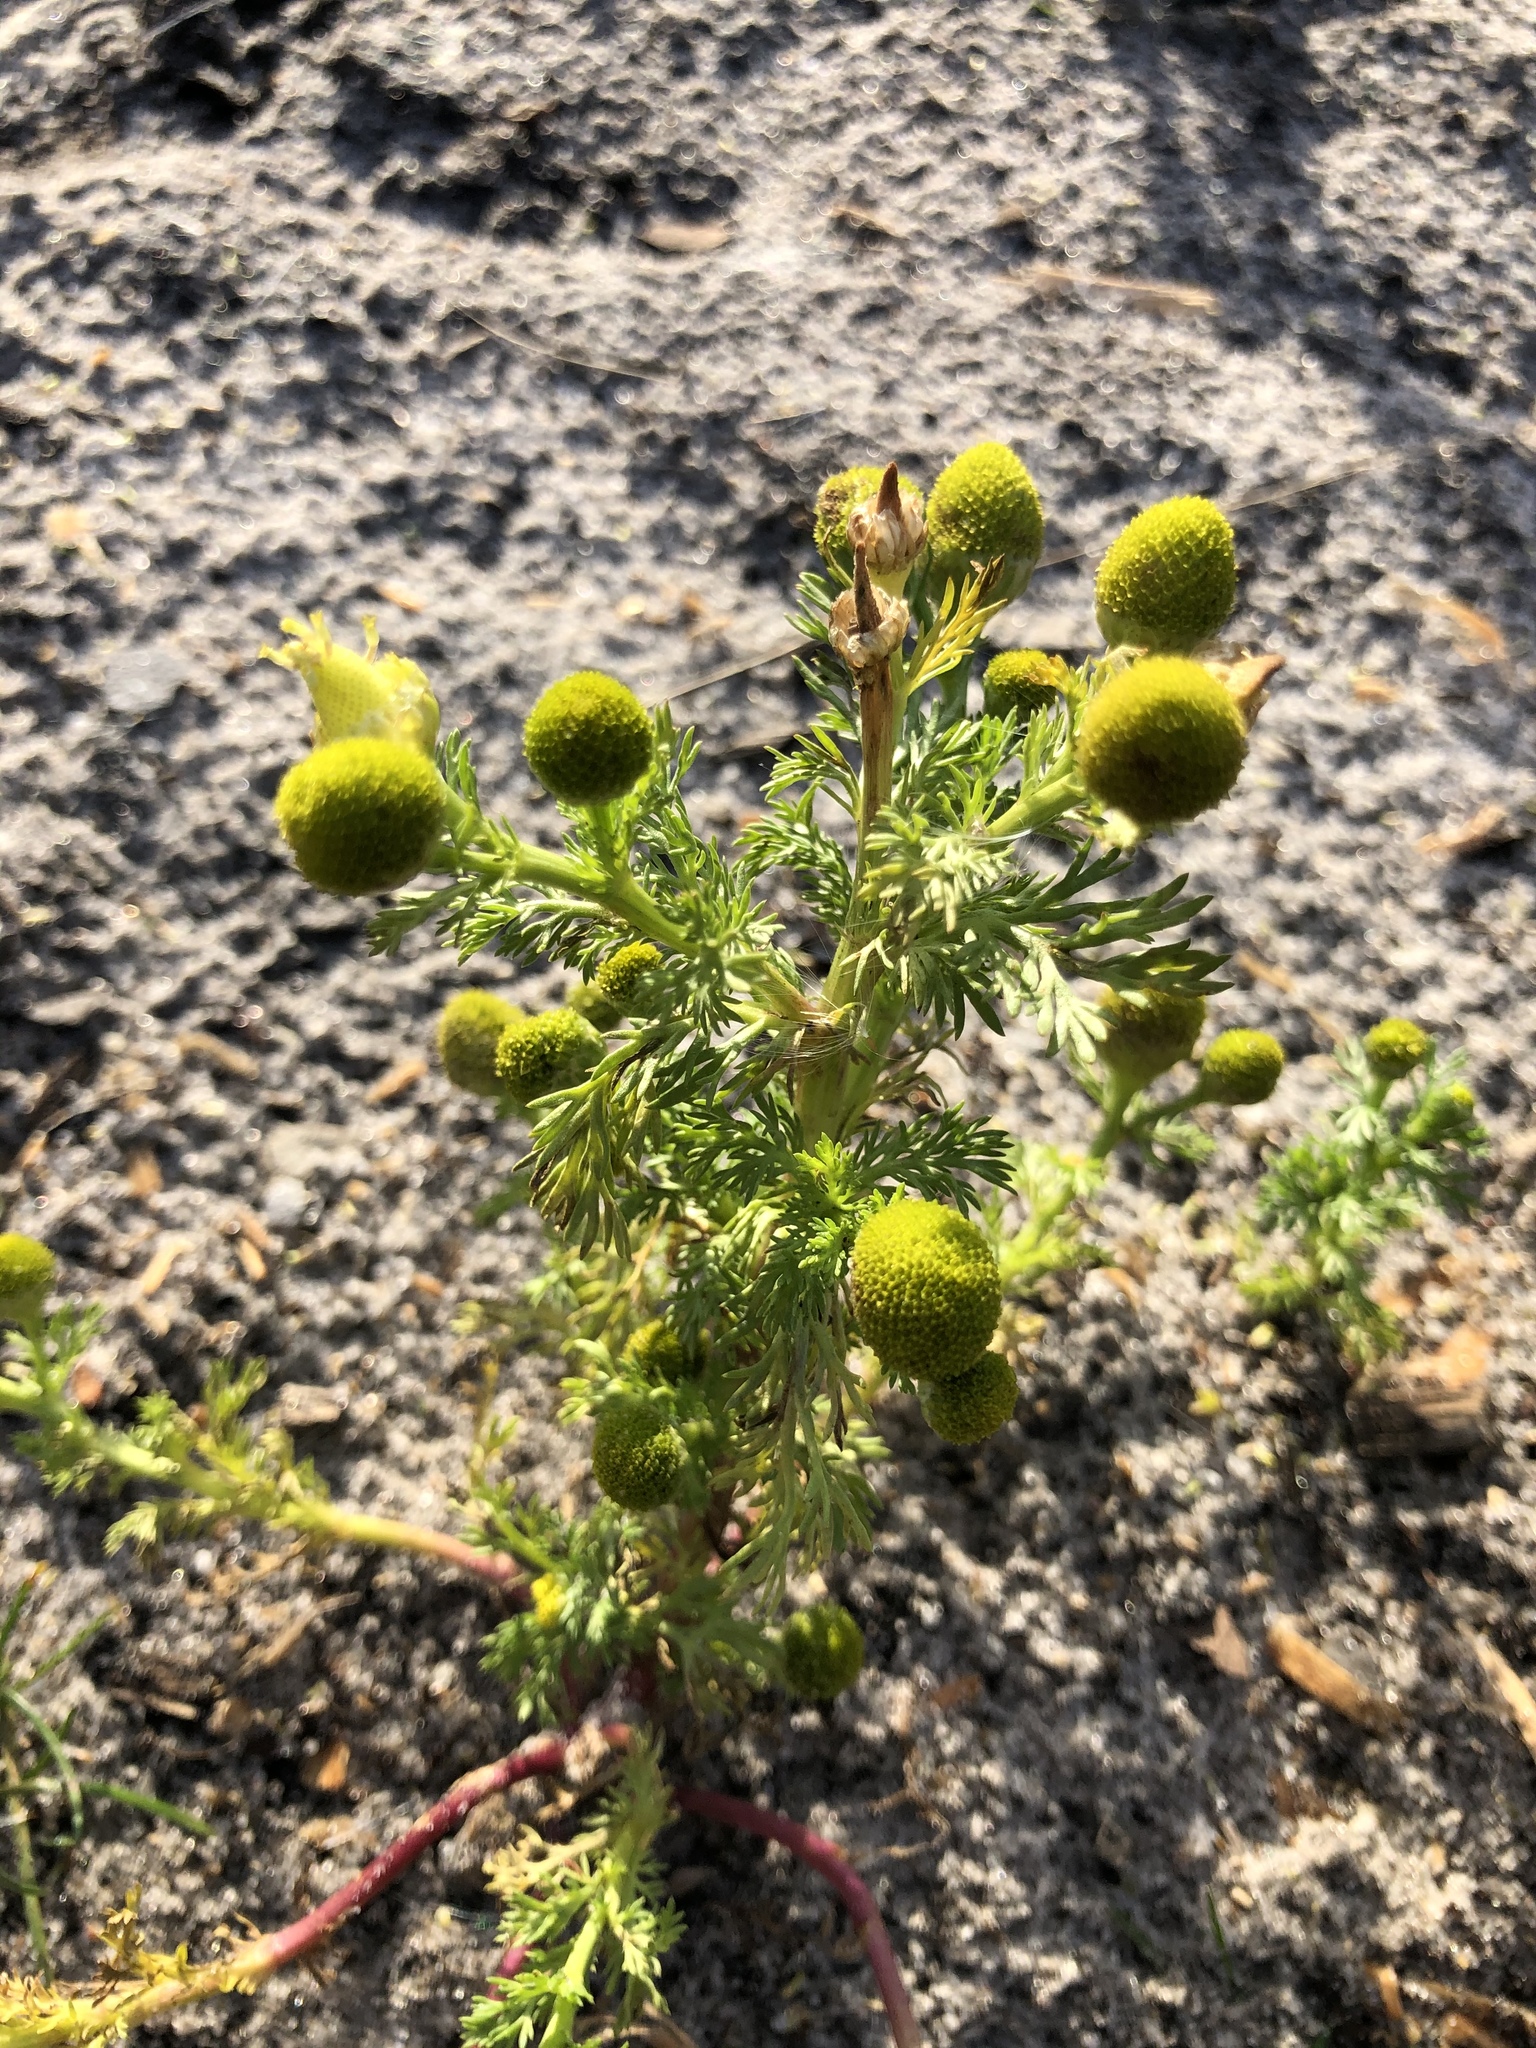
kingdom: Plantae
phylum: Tracheophyta
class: Magnoliopsida
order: Asterales
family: Asteraceae
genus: Matricaria
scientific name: Matricaria discoidea
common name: Disc mayweed
